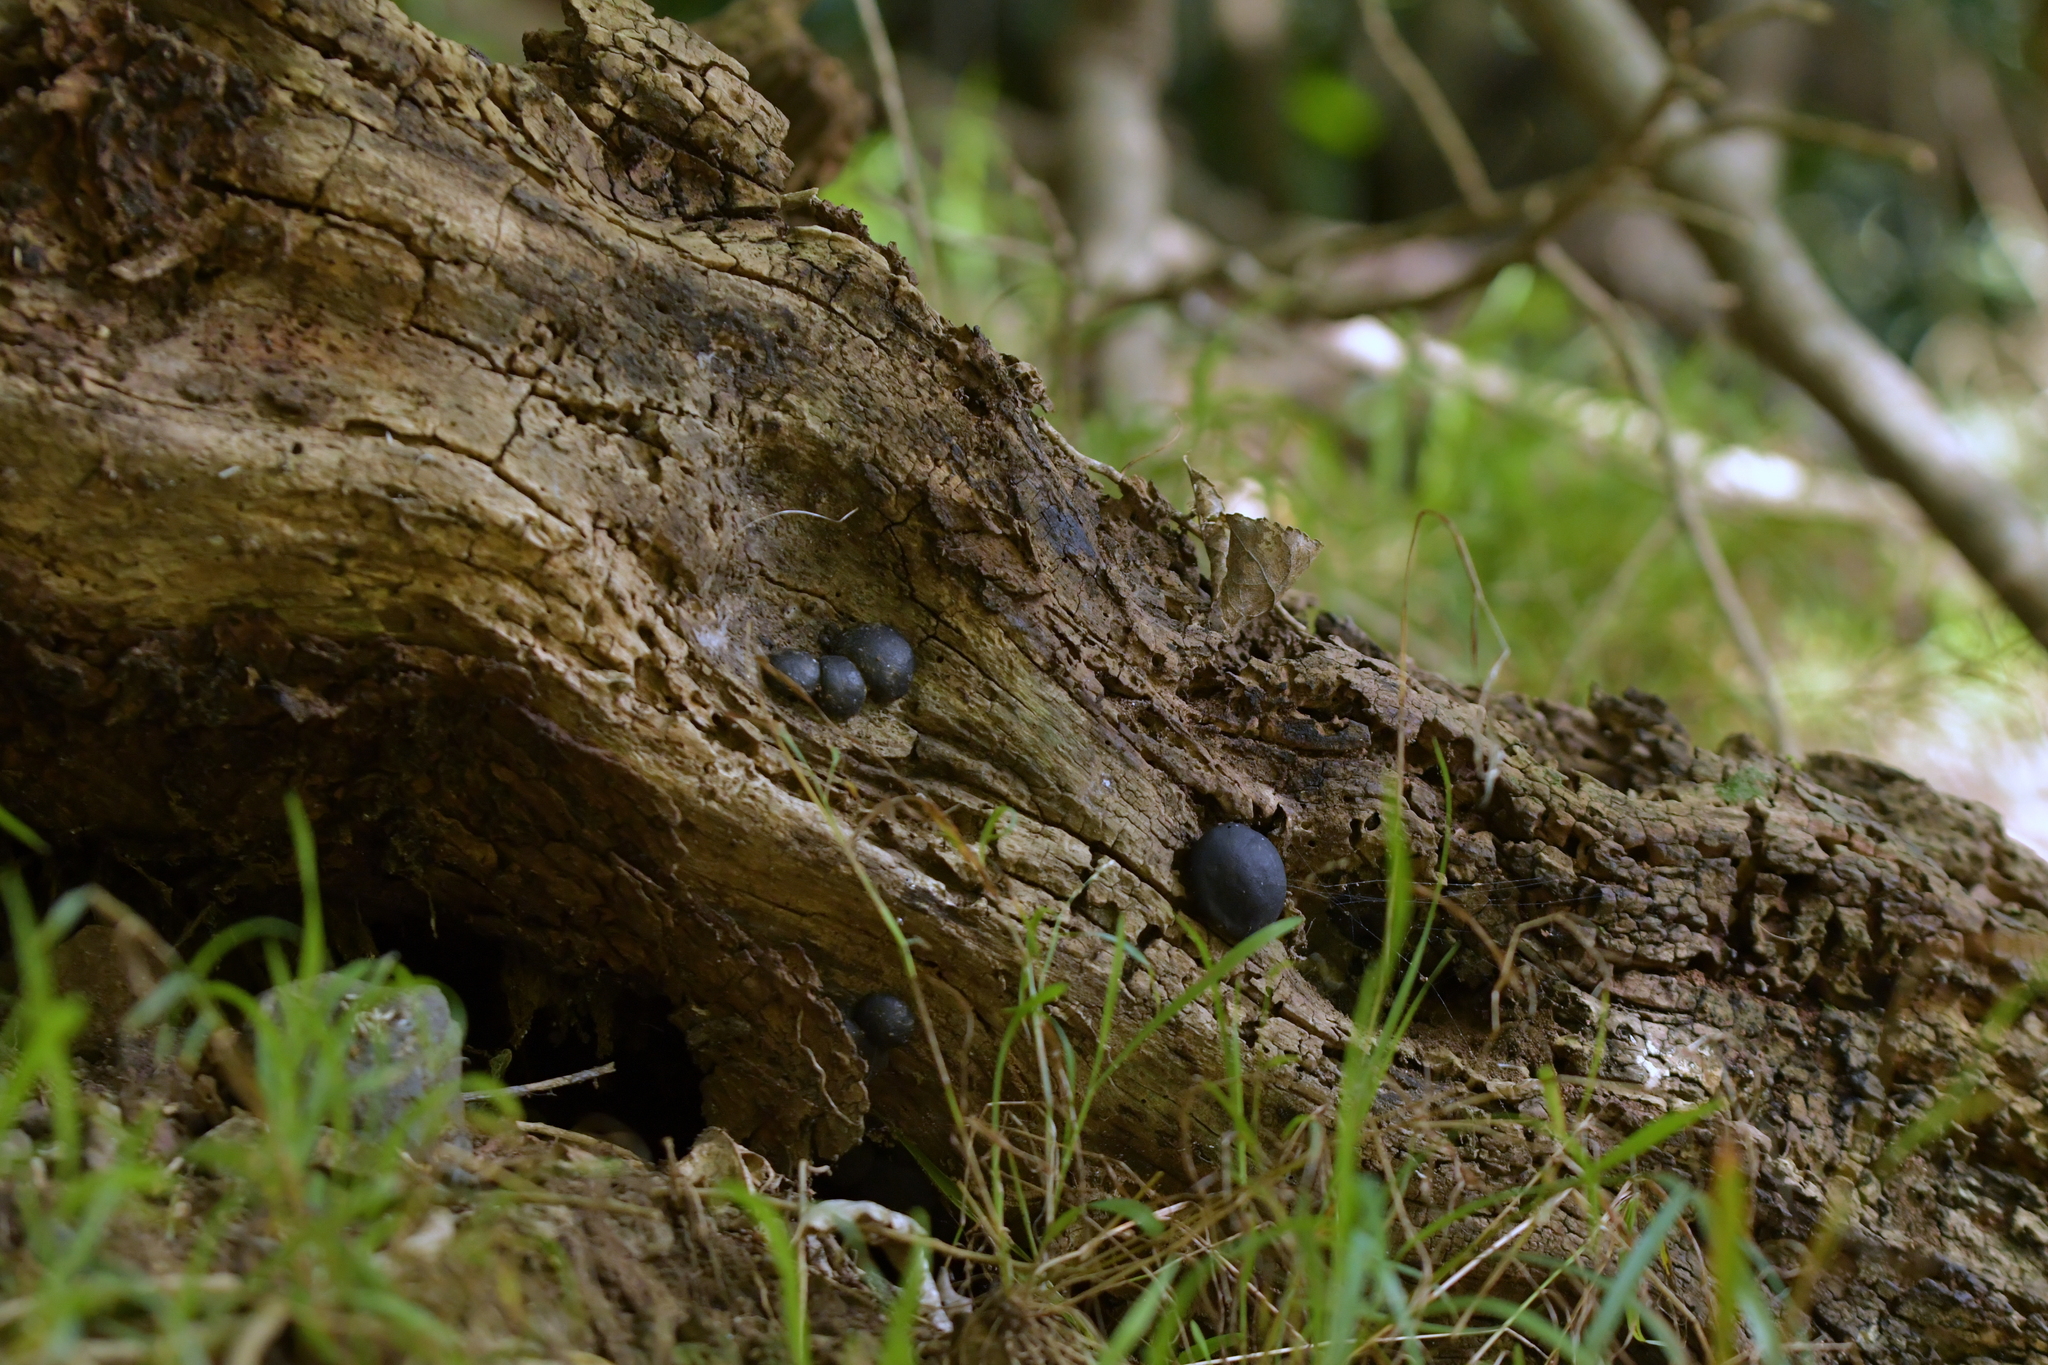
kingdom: Fungi
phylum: Ascomycota
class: Sordariomycetes
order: Xylariales
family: Hypoxylaceae
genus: Daldinia
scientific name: Daldinia
